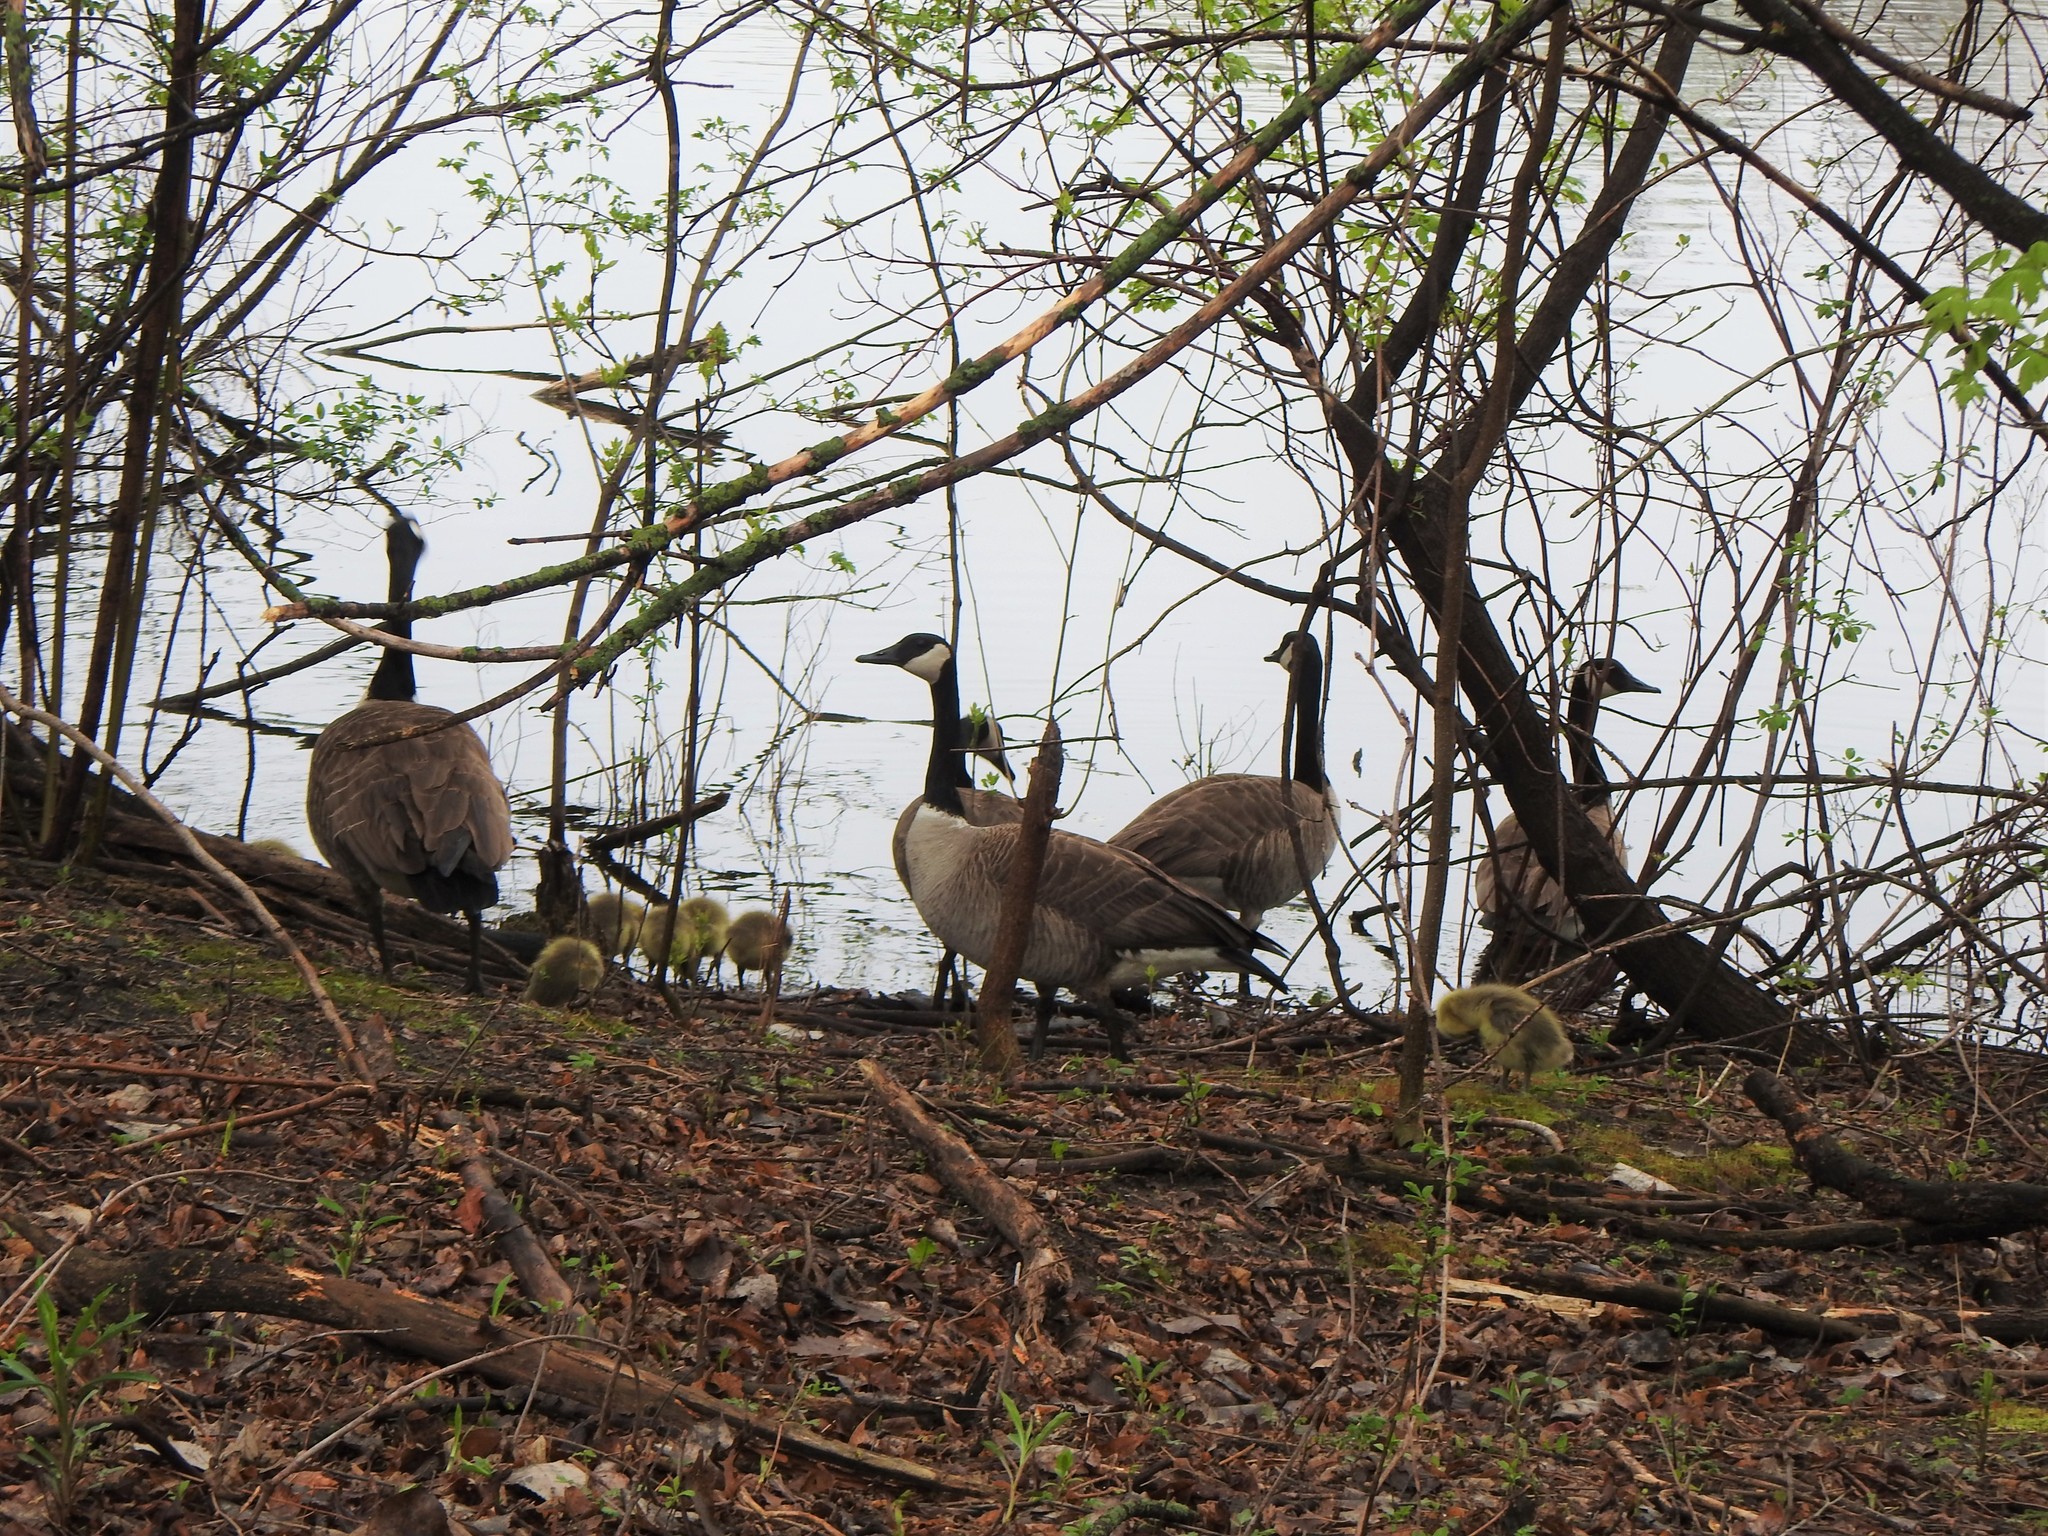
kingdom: Animalia
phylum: Chordata
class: Aves
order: Anseriformes
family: Anatidae
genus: Branta
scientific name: Branta canadensis
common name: Canada goose
